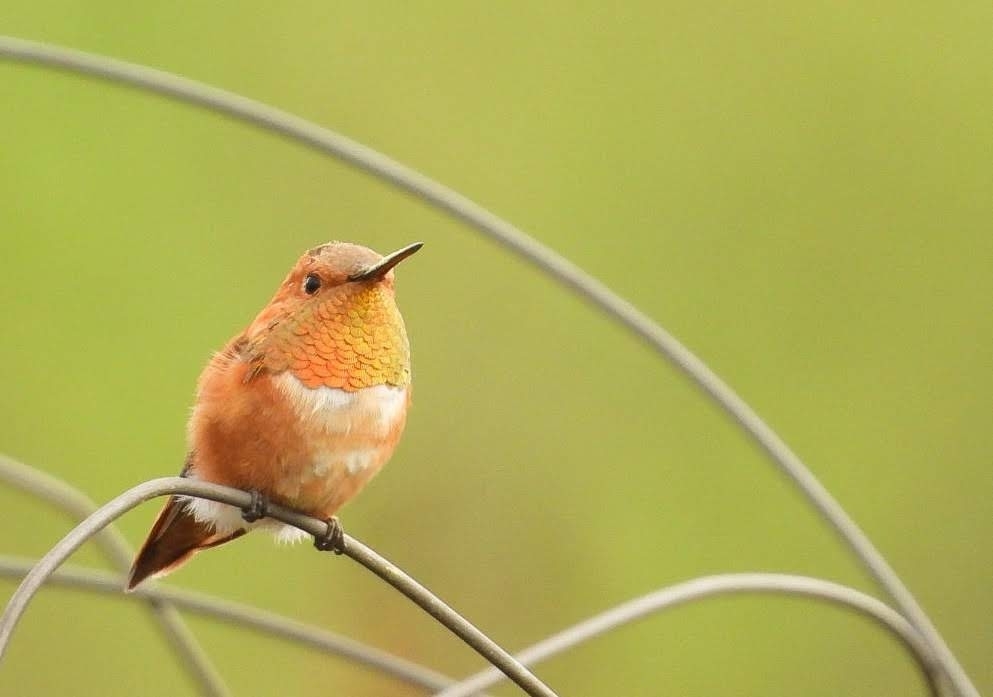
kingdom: Animalia
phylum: Chordata
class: Aves
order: Apodiformes
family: Trochilidae
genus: Selasphorus
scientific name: Selasphorus rufus
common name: Rufous hummingbird
